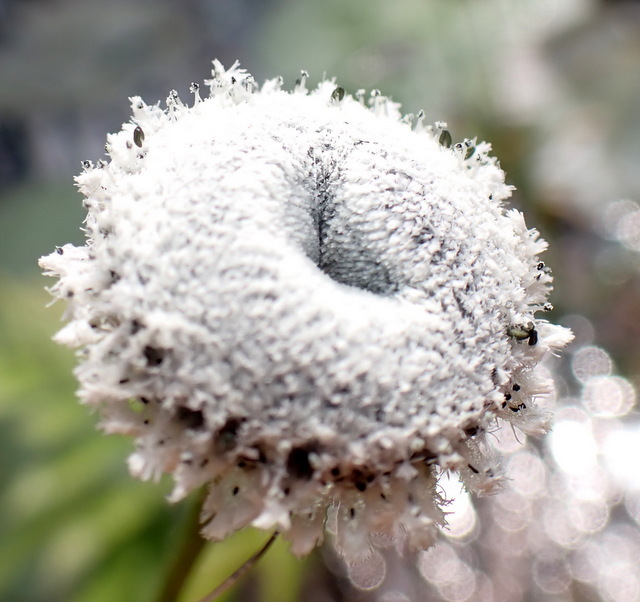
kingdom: Plantae
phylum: Tracheophyta
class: Liliopsida
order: Poales
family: Eriocaulaceae
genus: Eriocaulon
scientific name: Eriocaulon compressum
